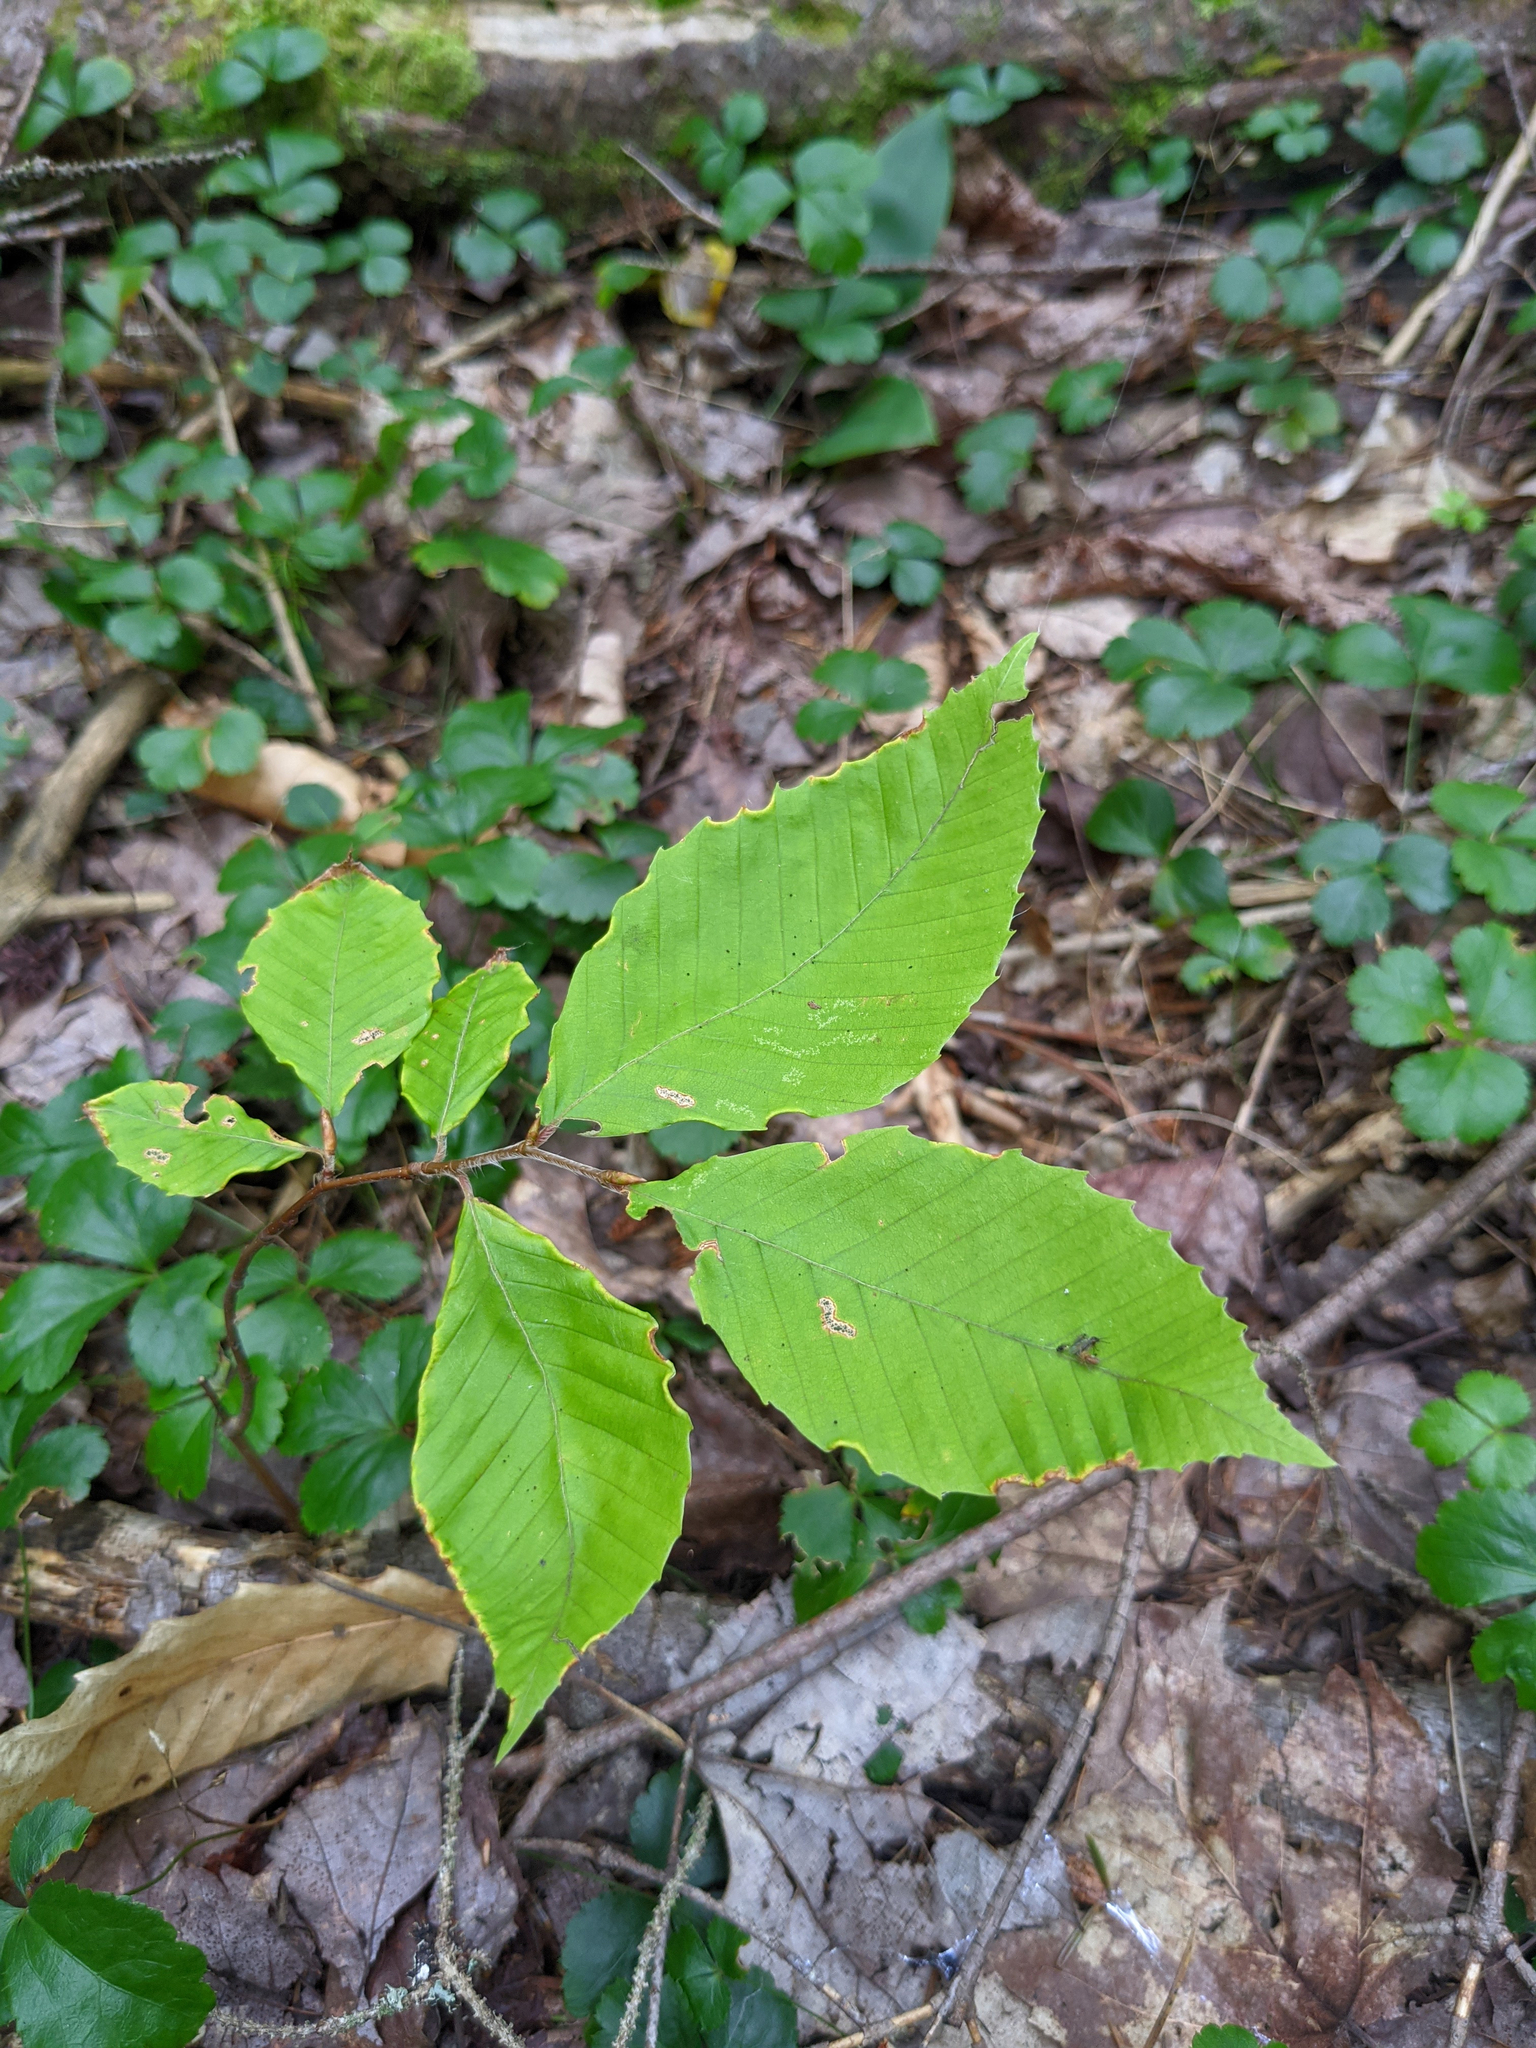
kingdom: Plantae
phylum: Tracheophyta
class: Magnoliopsida
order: Fagales
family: Fagaceae
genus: Fagus
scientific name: Fagus grandifolia
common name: American beech
